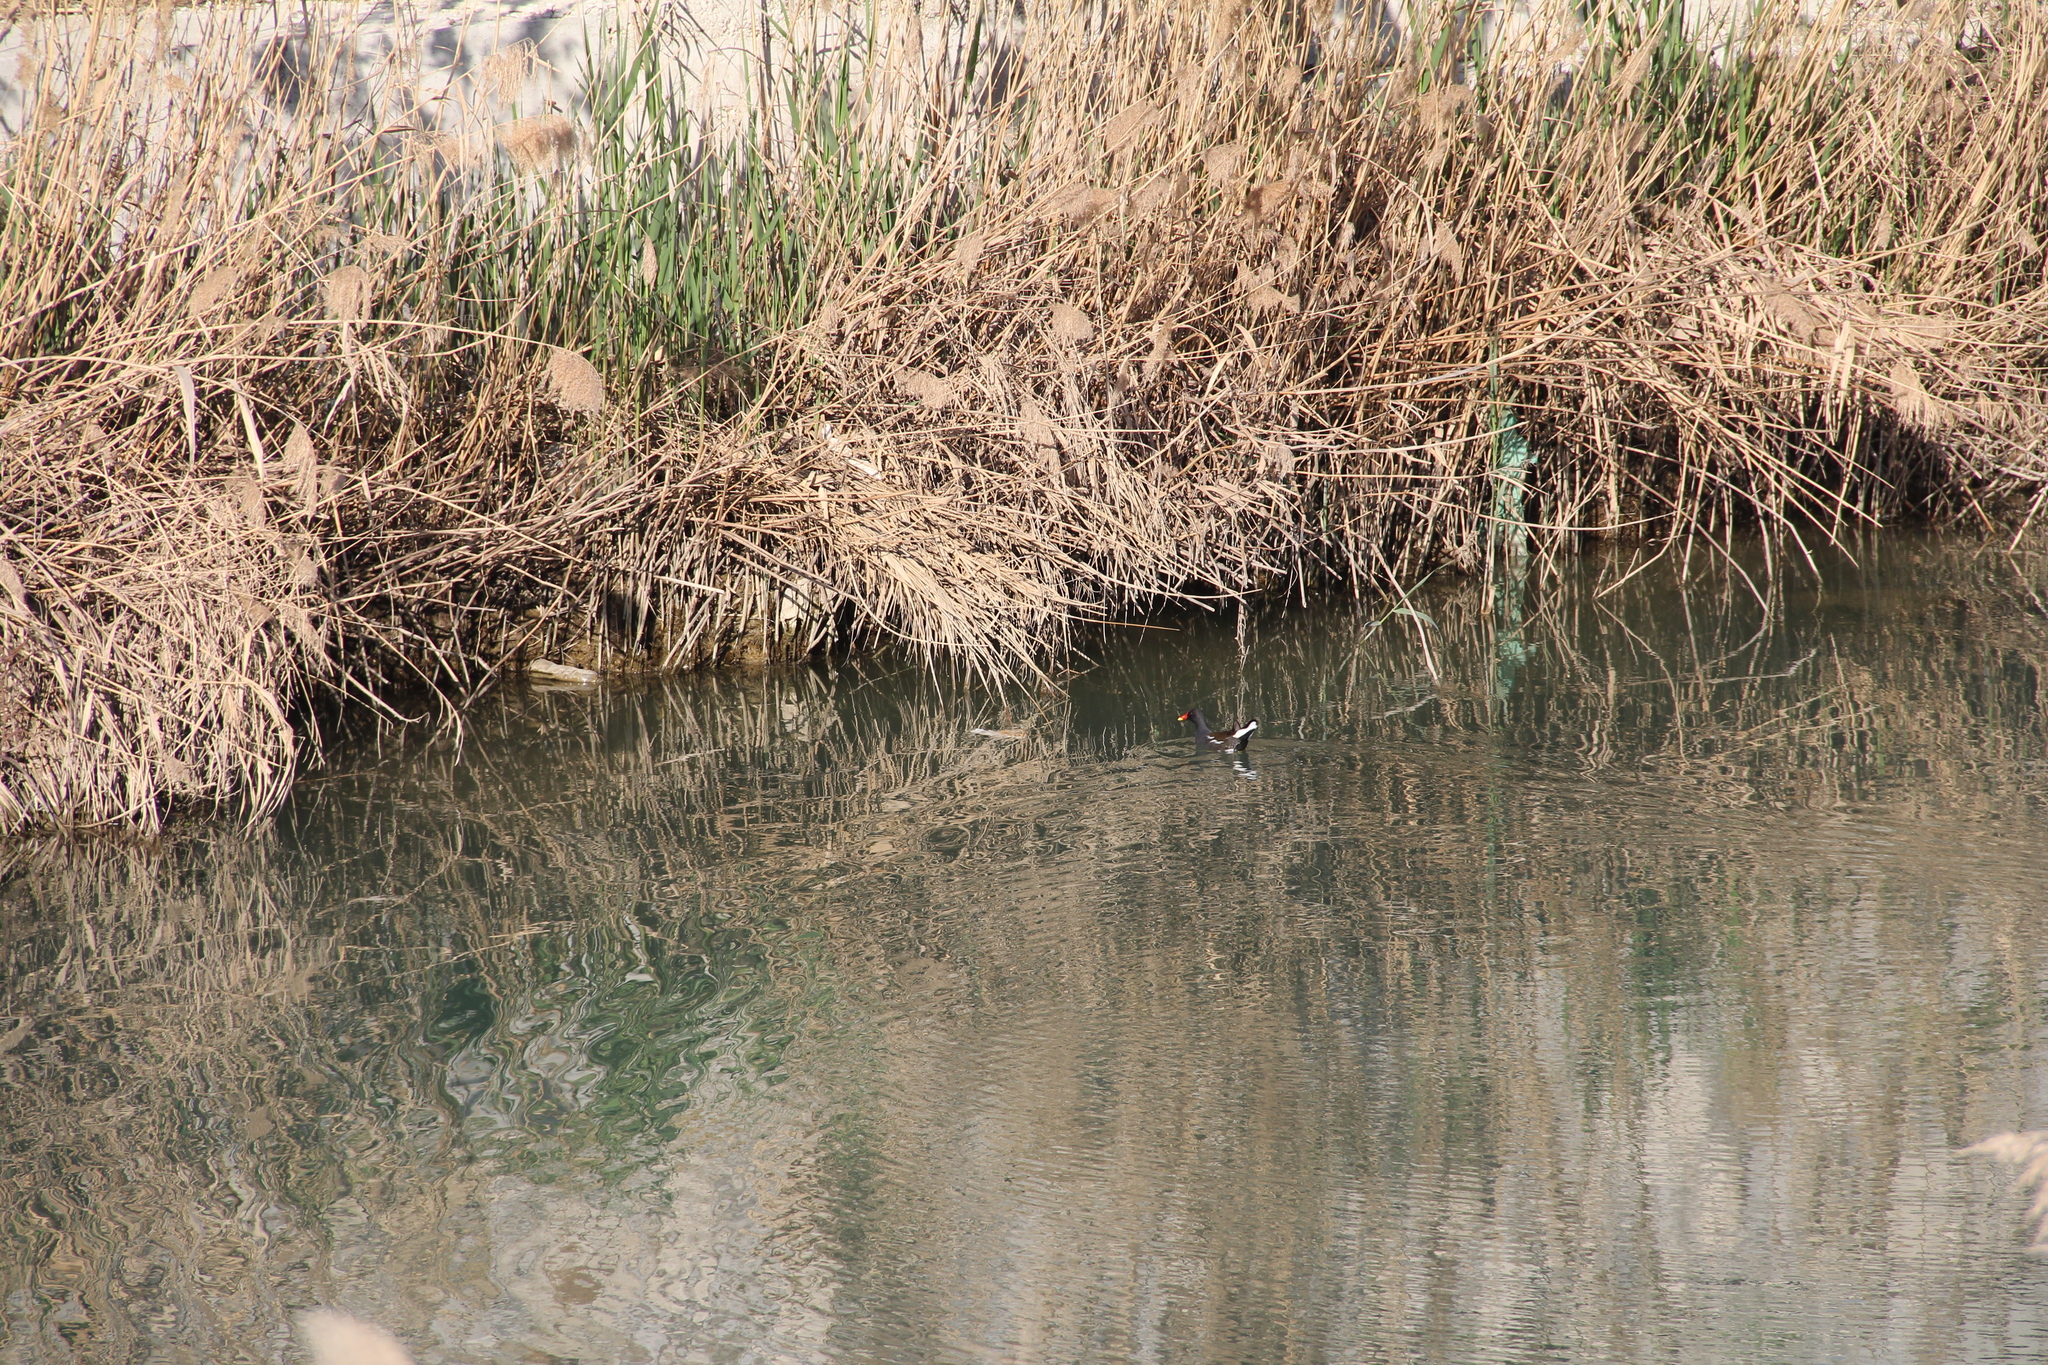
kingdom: Animalia
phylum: Chordata
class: Aves
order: Gruiformes
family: Rallidae
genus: Gallinula
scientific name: Gallinula chloropus
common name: Common moorhen
